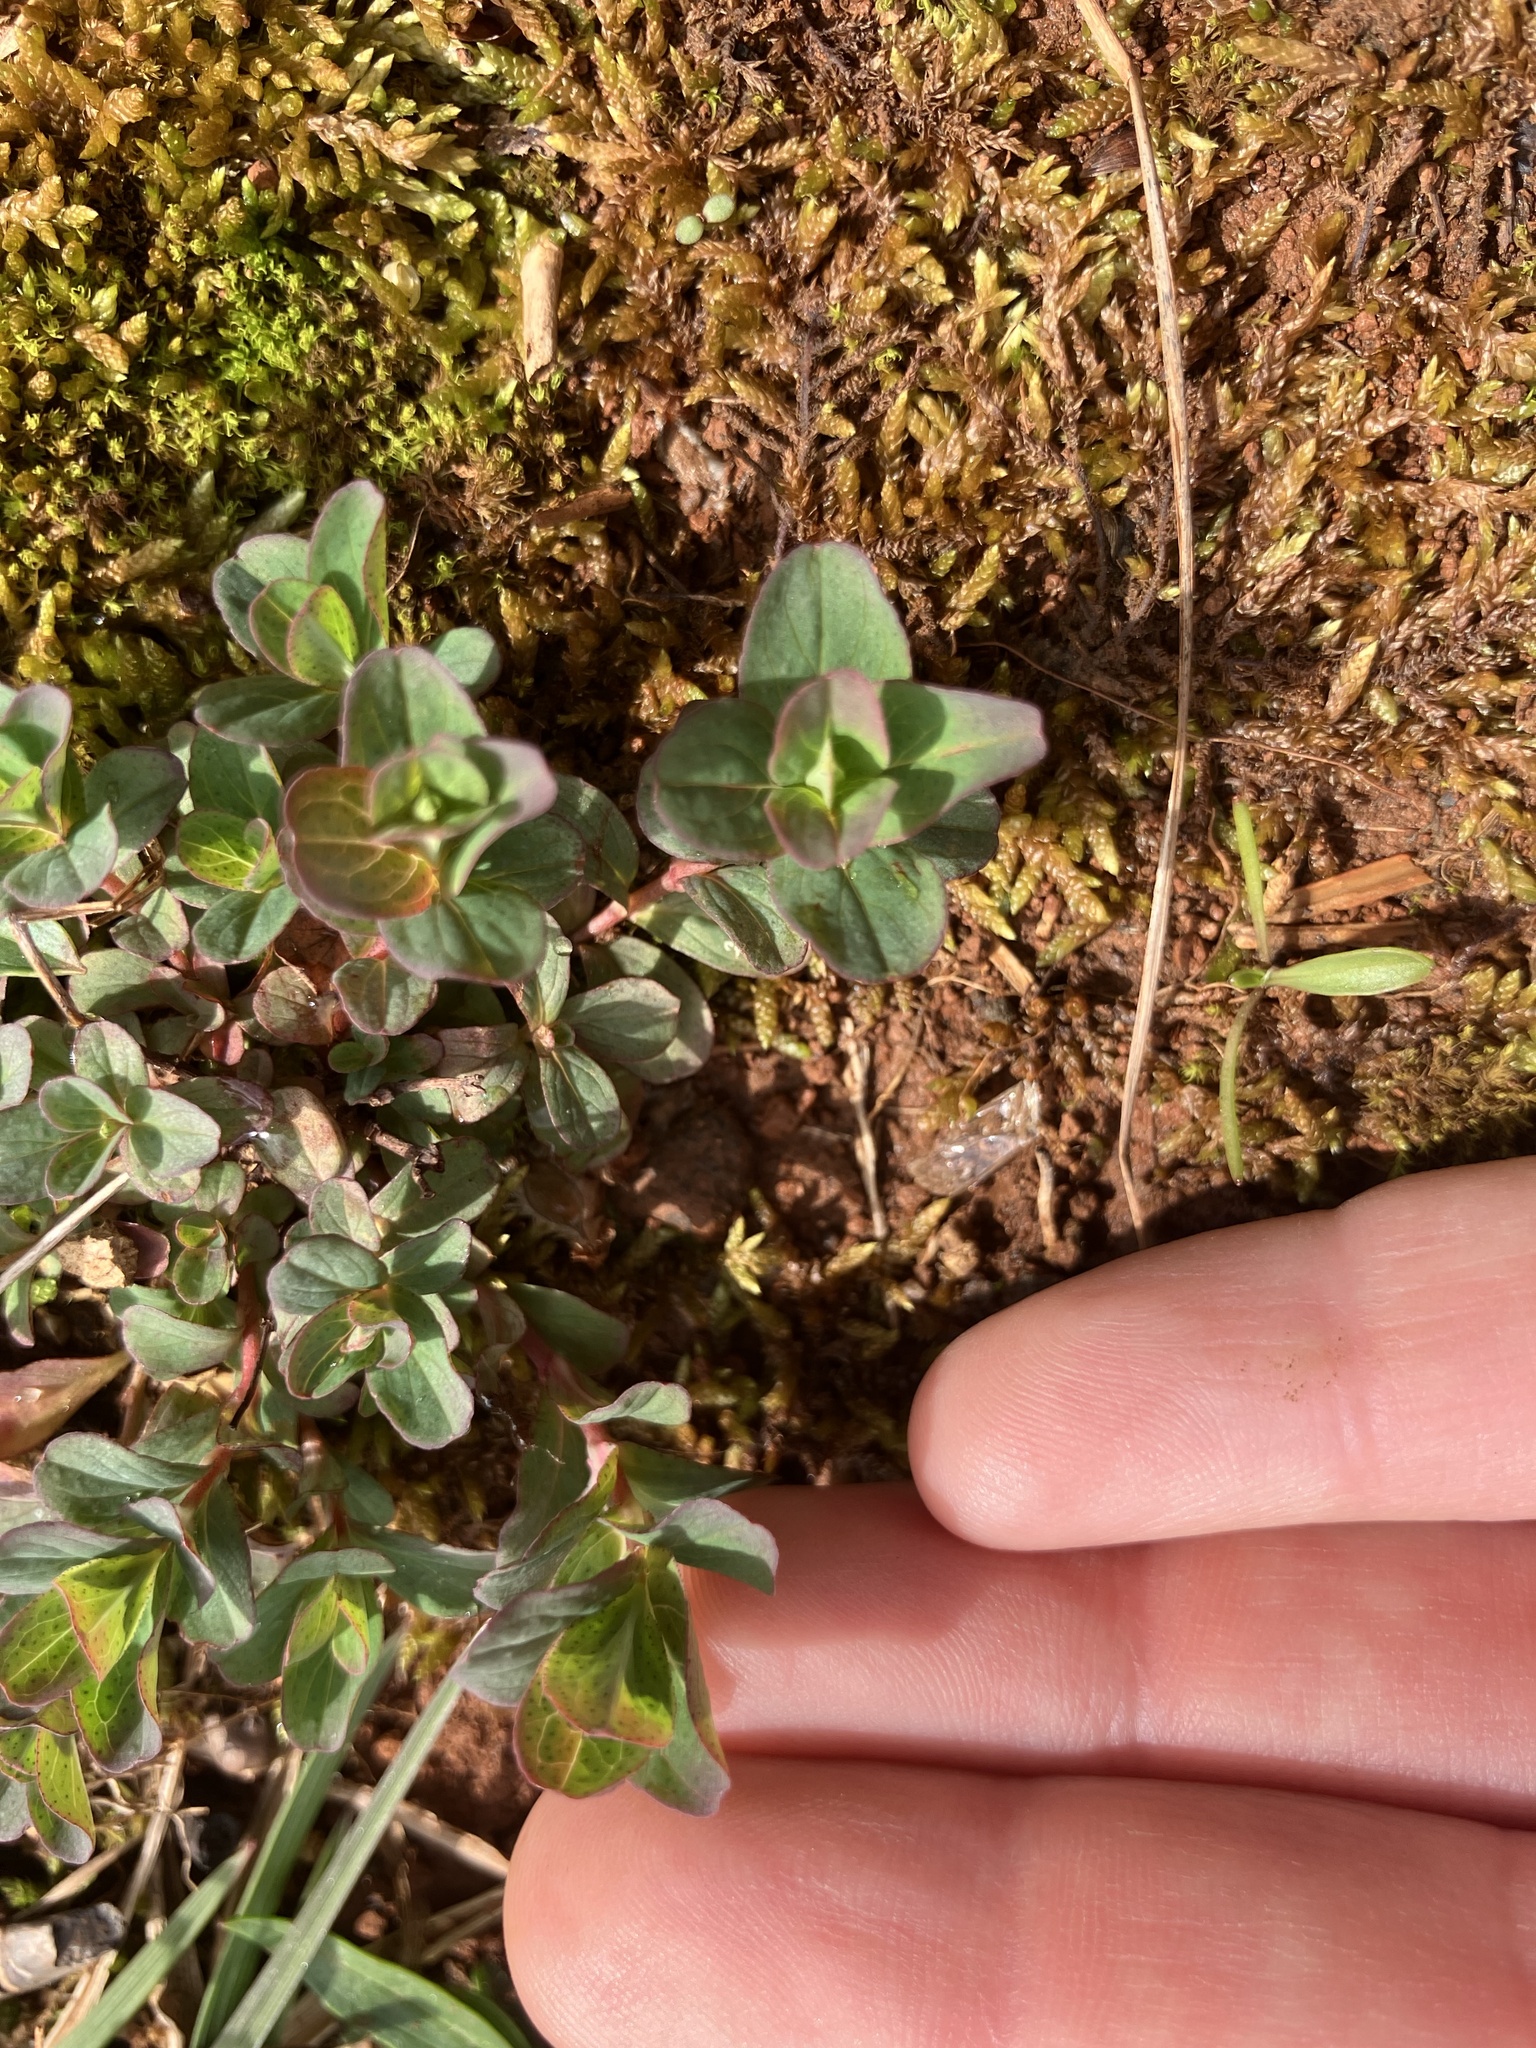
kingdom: Plantae
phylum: Tracheophyta
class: Magnoliopsida
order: Malpighiales
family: Hypericaceae
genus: Hypericum
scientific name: Hypericum punctatum
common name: Spotted st. john's-wort
